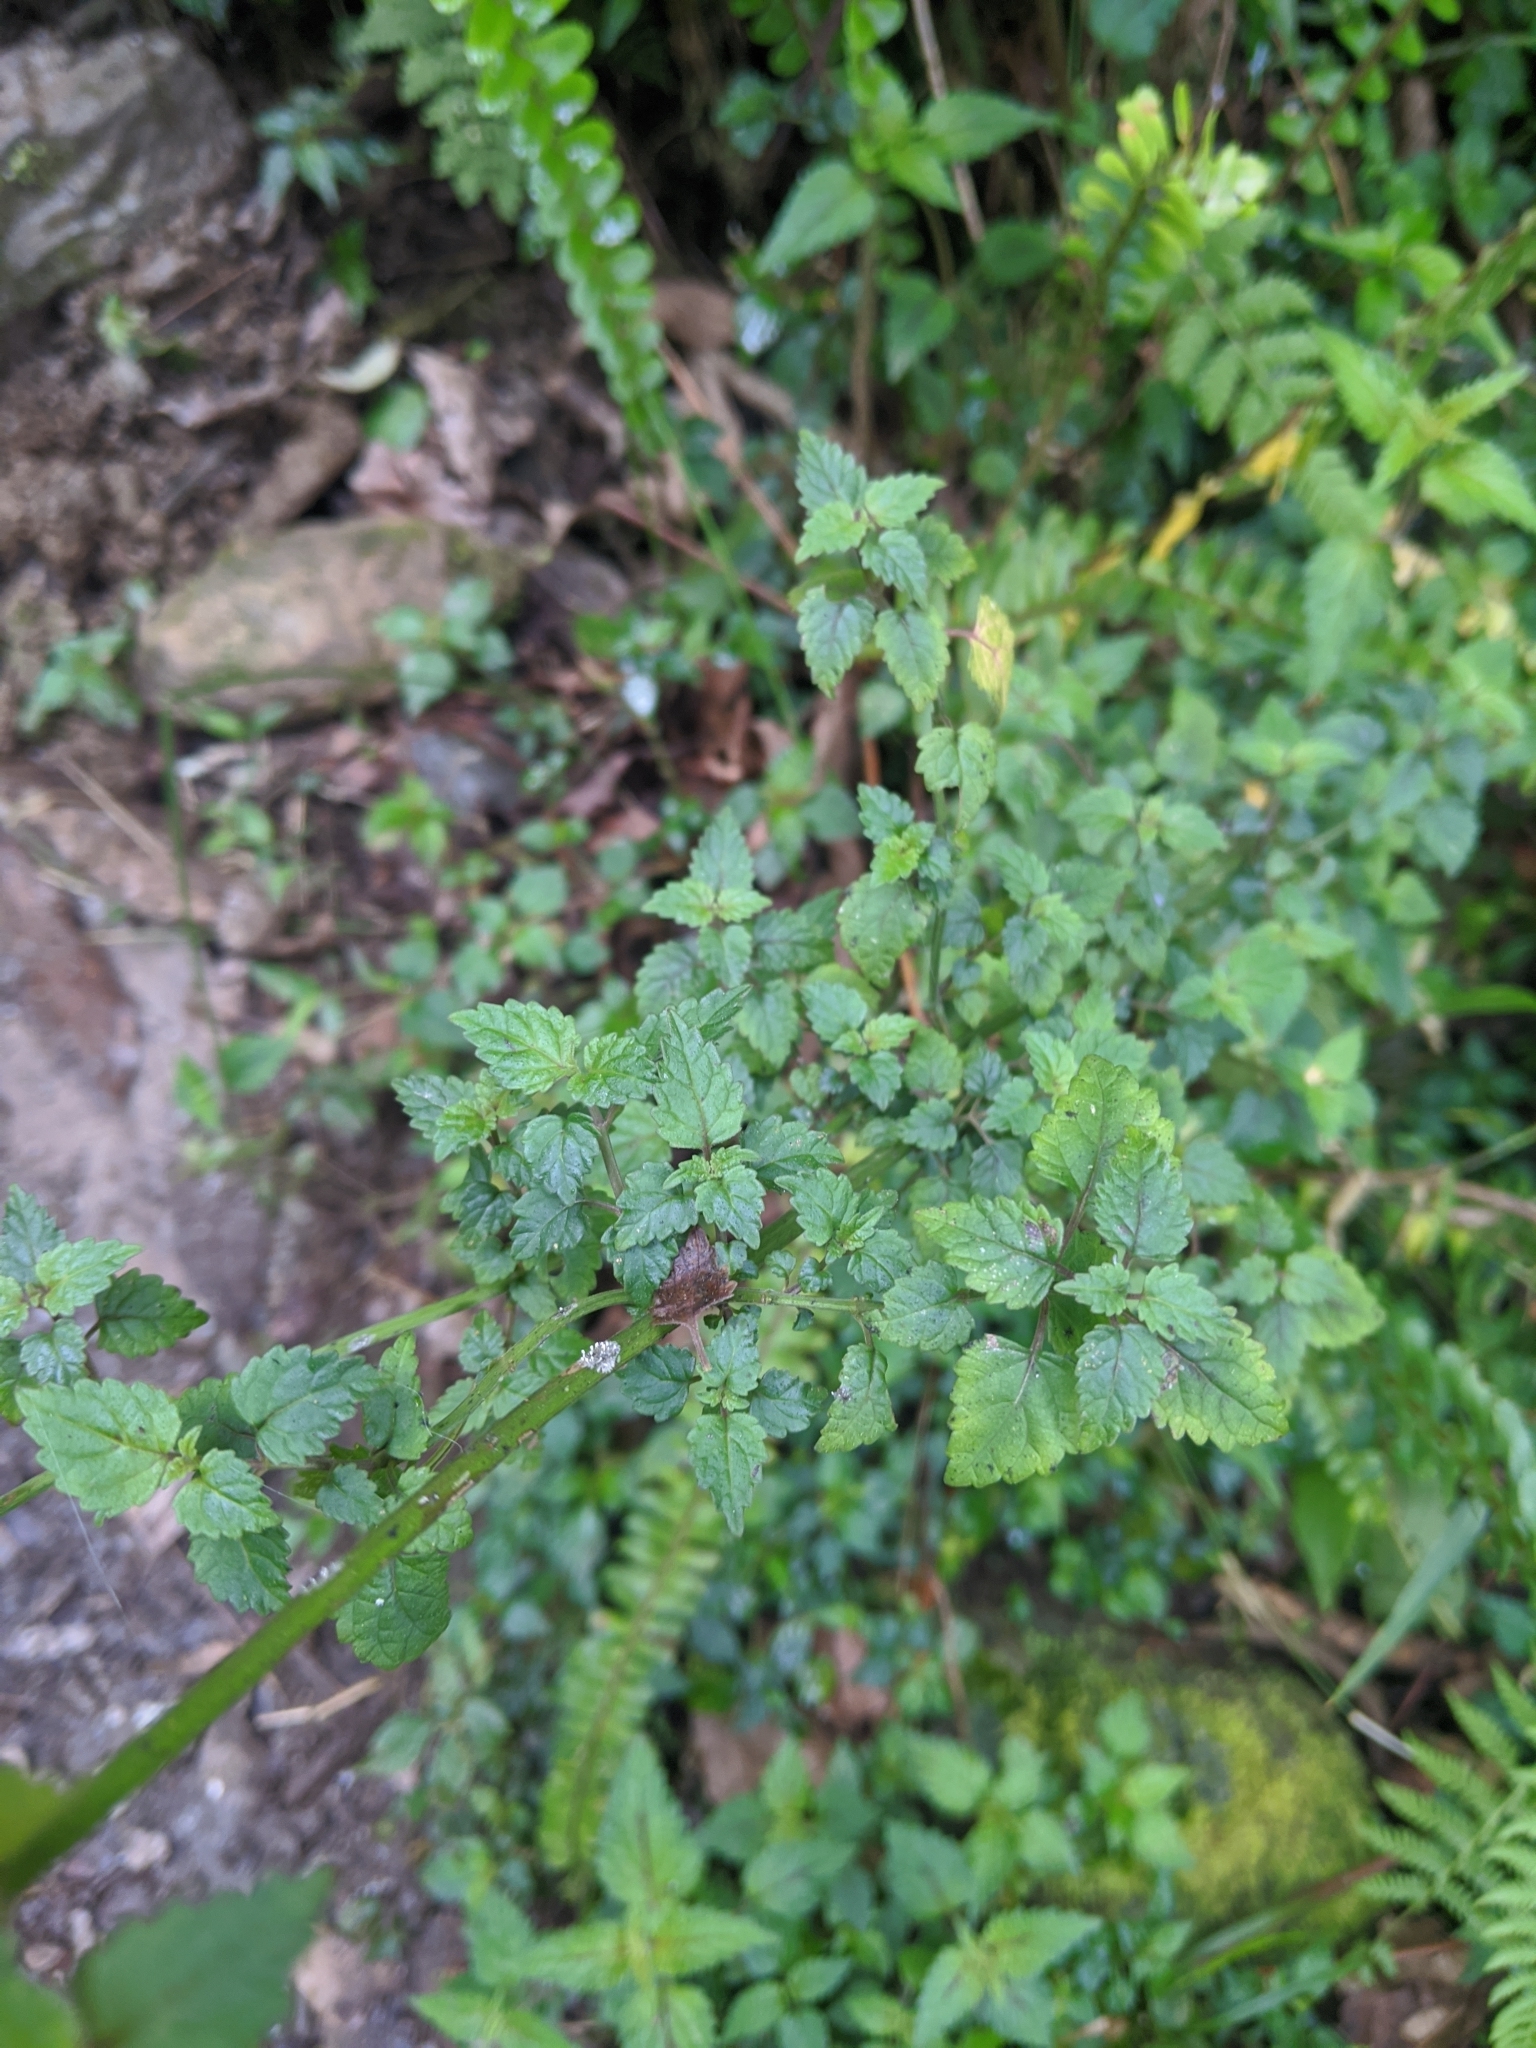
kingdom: Plantae
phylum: Tracheophyta
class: Magnoliopsida
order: Lamiales
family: Lamiaceae
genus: Melissa
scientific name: Melissa axillaris
